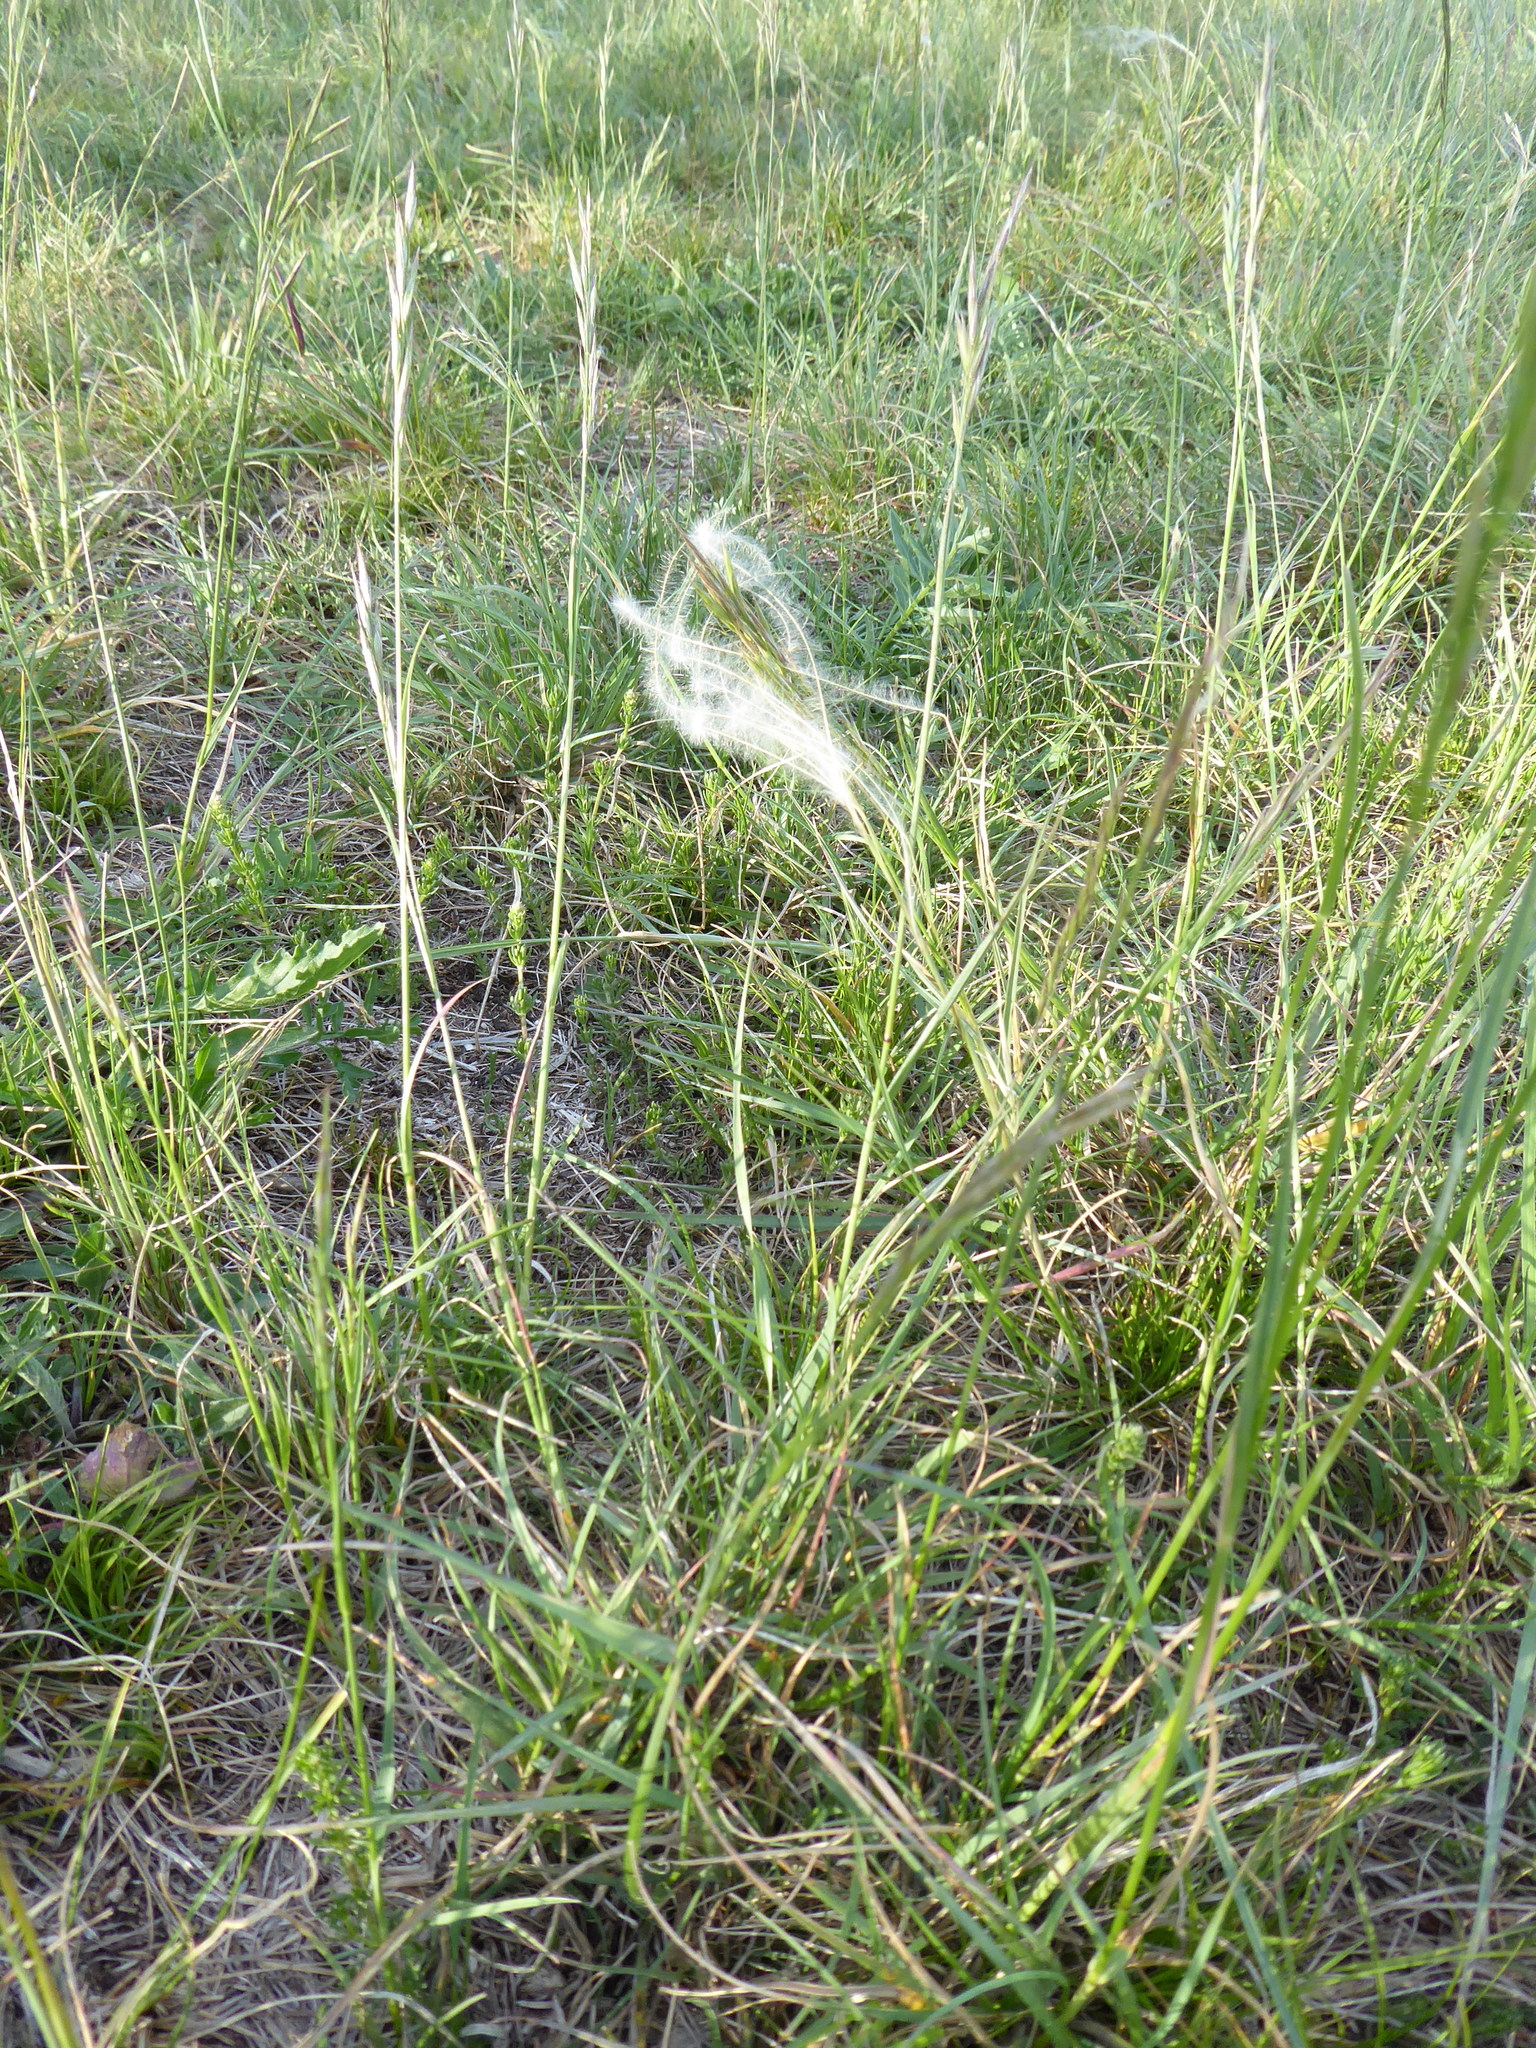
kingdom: Plantae
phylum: Tracheophyta
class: Liliopsida
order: Poales
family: Poaceae
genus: Stipa
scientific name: Stipa pennata
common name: European feather grass
